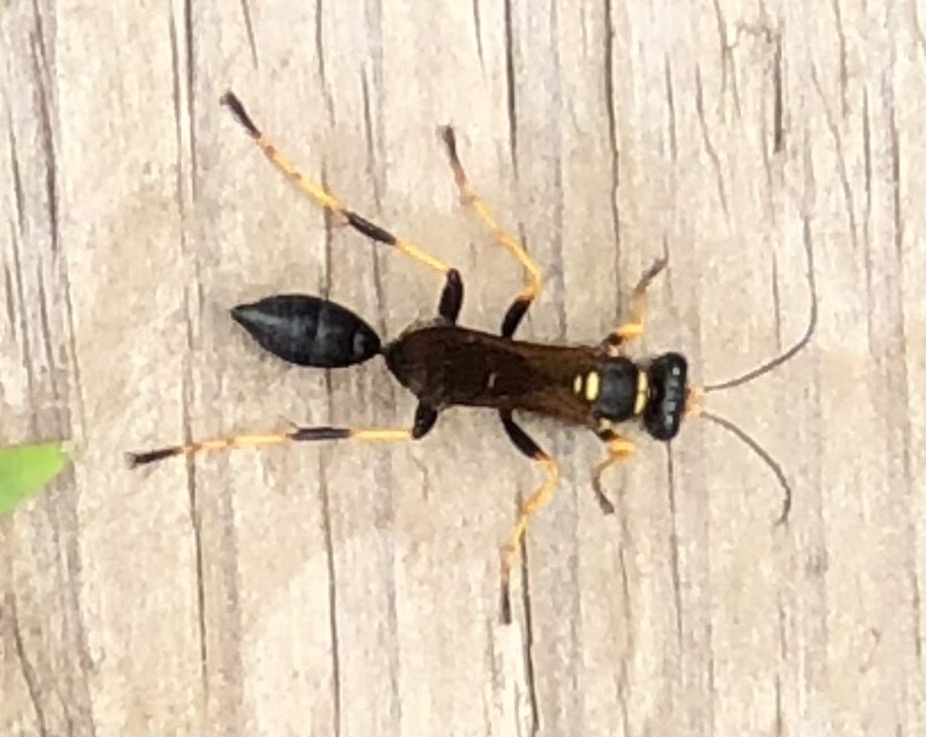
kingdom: Animalia
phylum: Arthropoda
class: Insecta
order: Hymenoptera
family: Sphecidae
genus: Sceliphron
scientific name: Sceliphron caementarium
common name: Mud dauber
